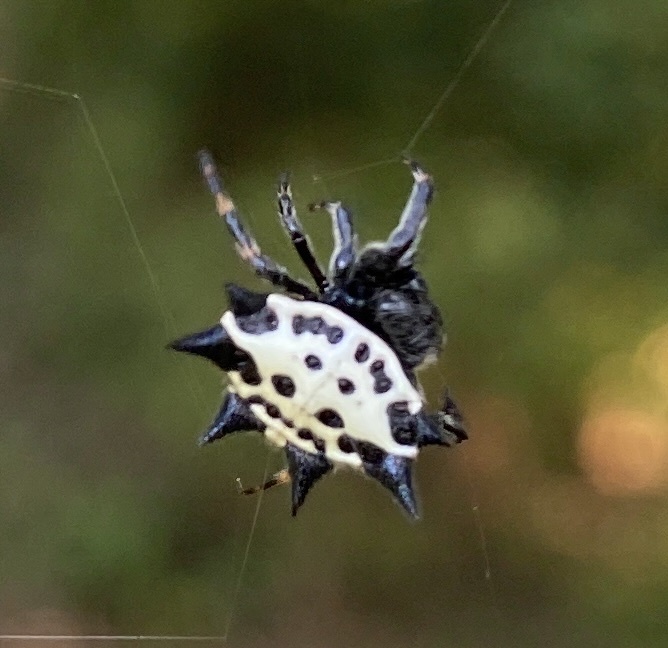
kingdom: Animalia
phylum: Arthropoda
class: Arachnida
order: Araneae
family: Araneidae
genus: Gasteracantha
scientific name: Gasteracantha cancriformis
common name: Orb weavers
